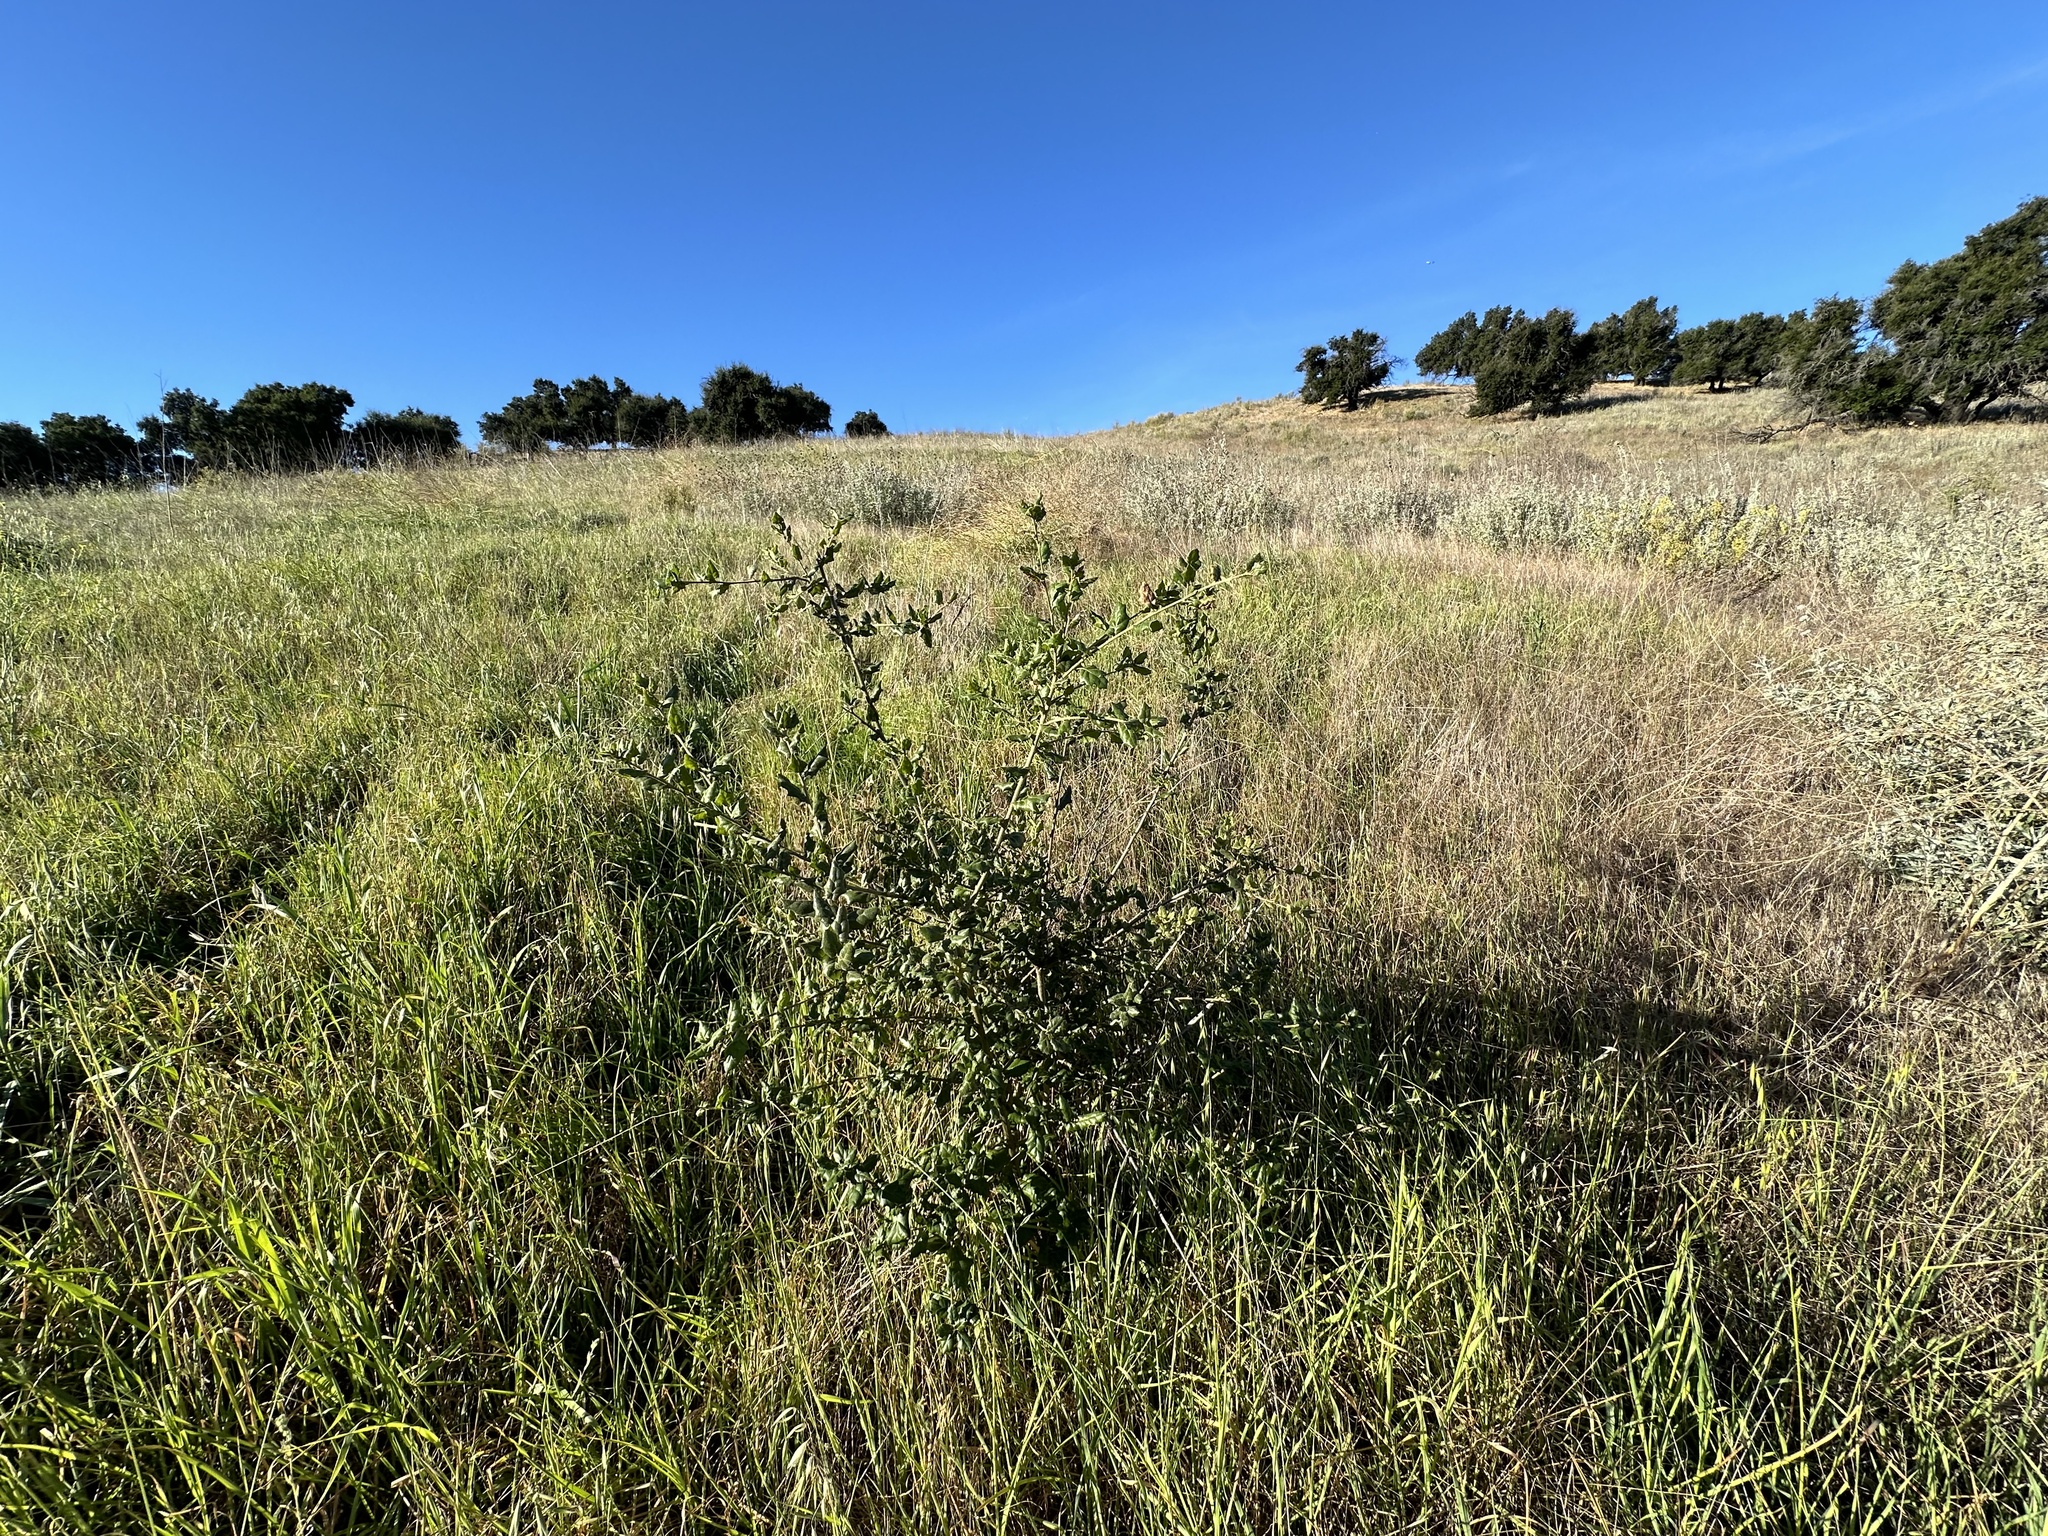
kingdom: Plantae
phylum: Tracheophyta
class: Magnoliopsida
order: Fagales
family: Fagaceae
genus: Quercus
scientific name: Quercus agrifolia
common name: California live oak
